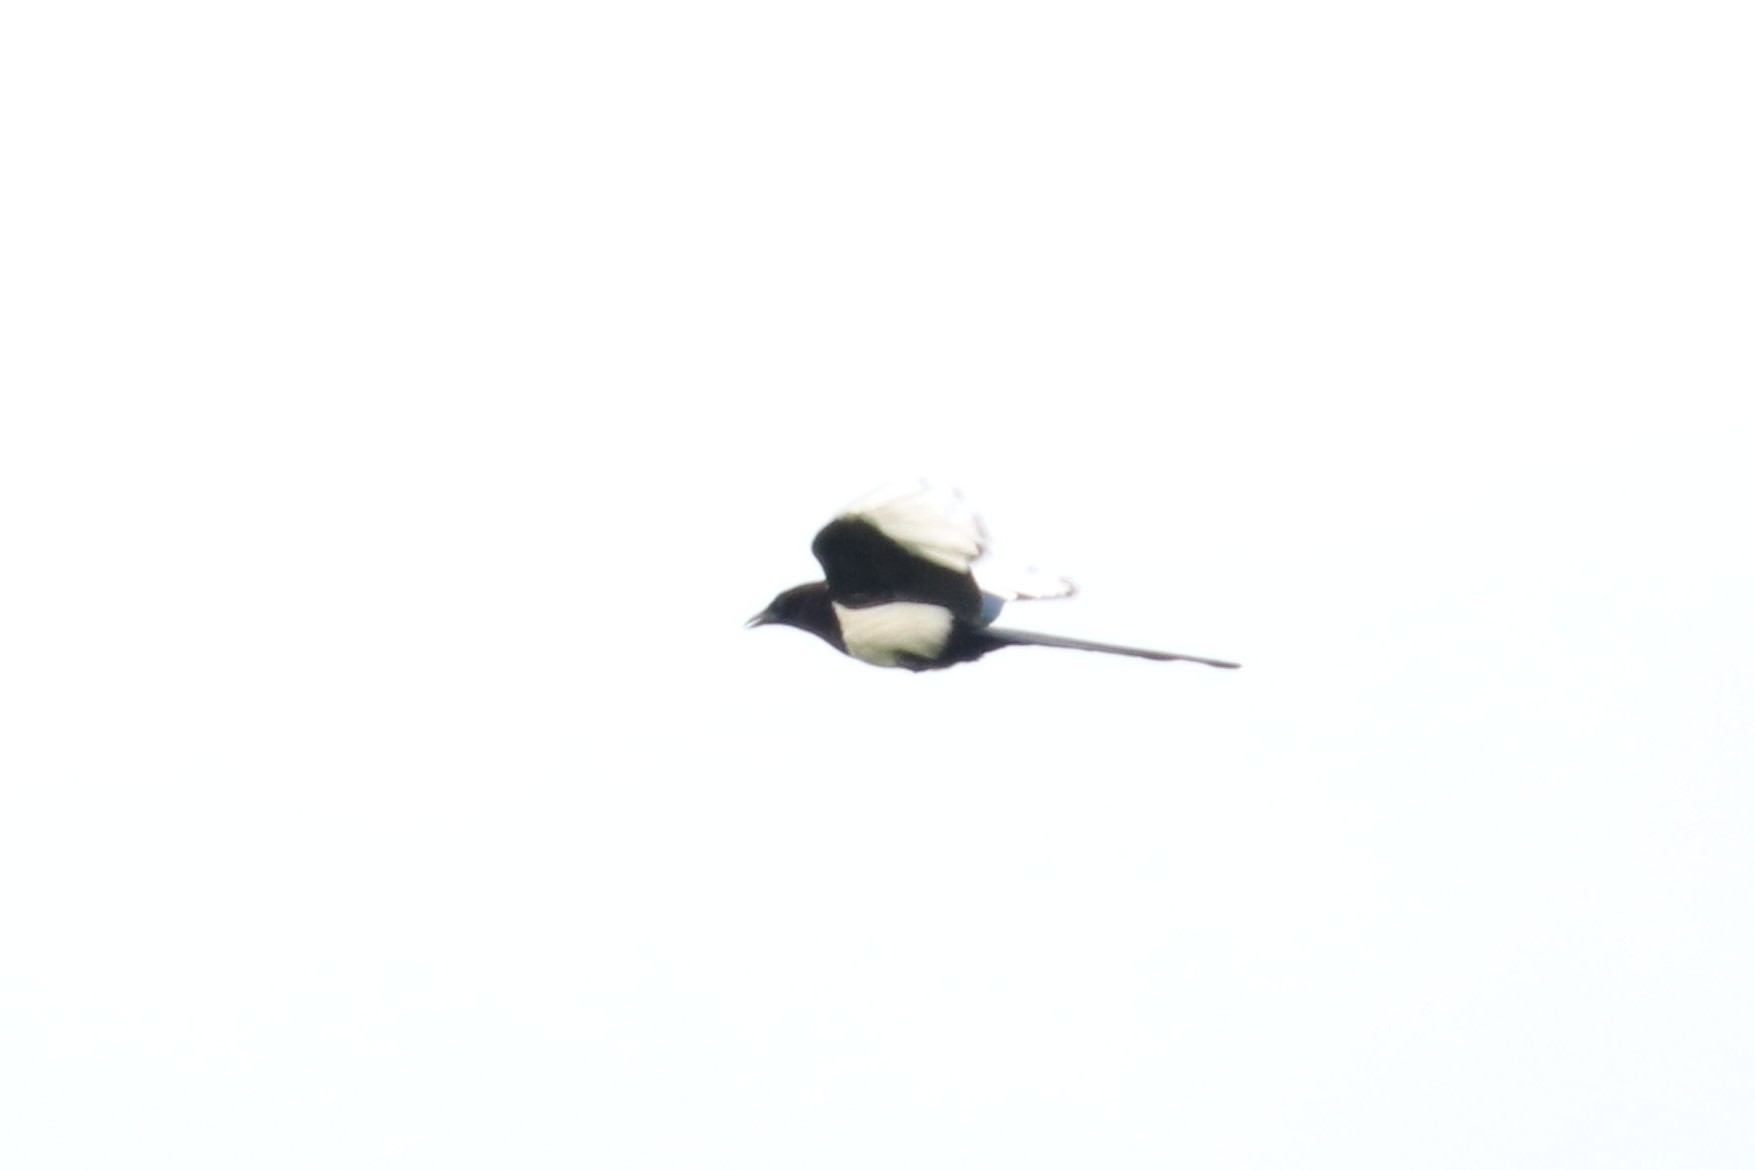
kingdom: Animalia
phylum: Chordata
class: Aves
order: Passeriformes
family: Corvidae
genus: Pica
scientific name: Pica pica
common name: Eurasian magpie
